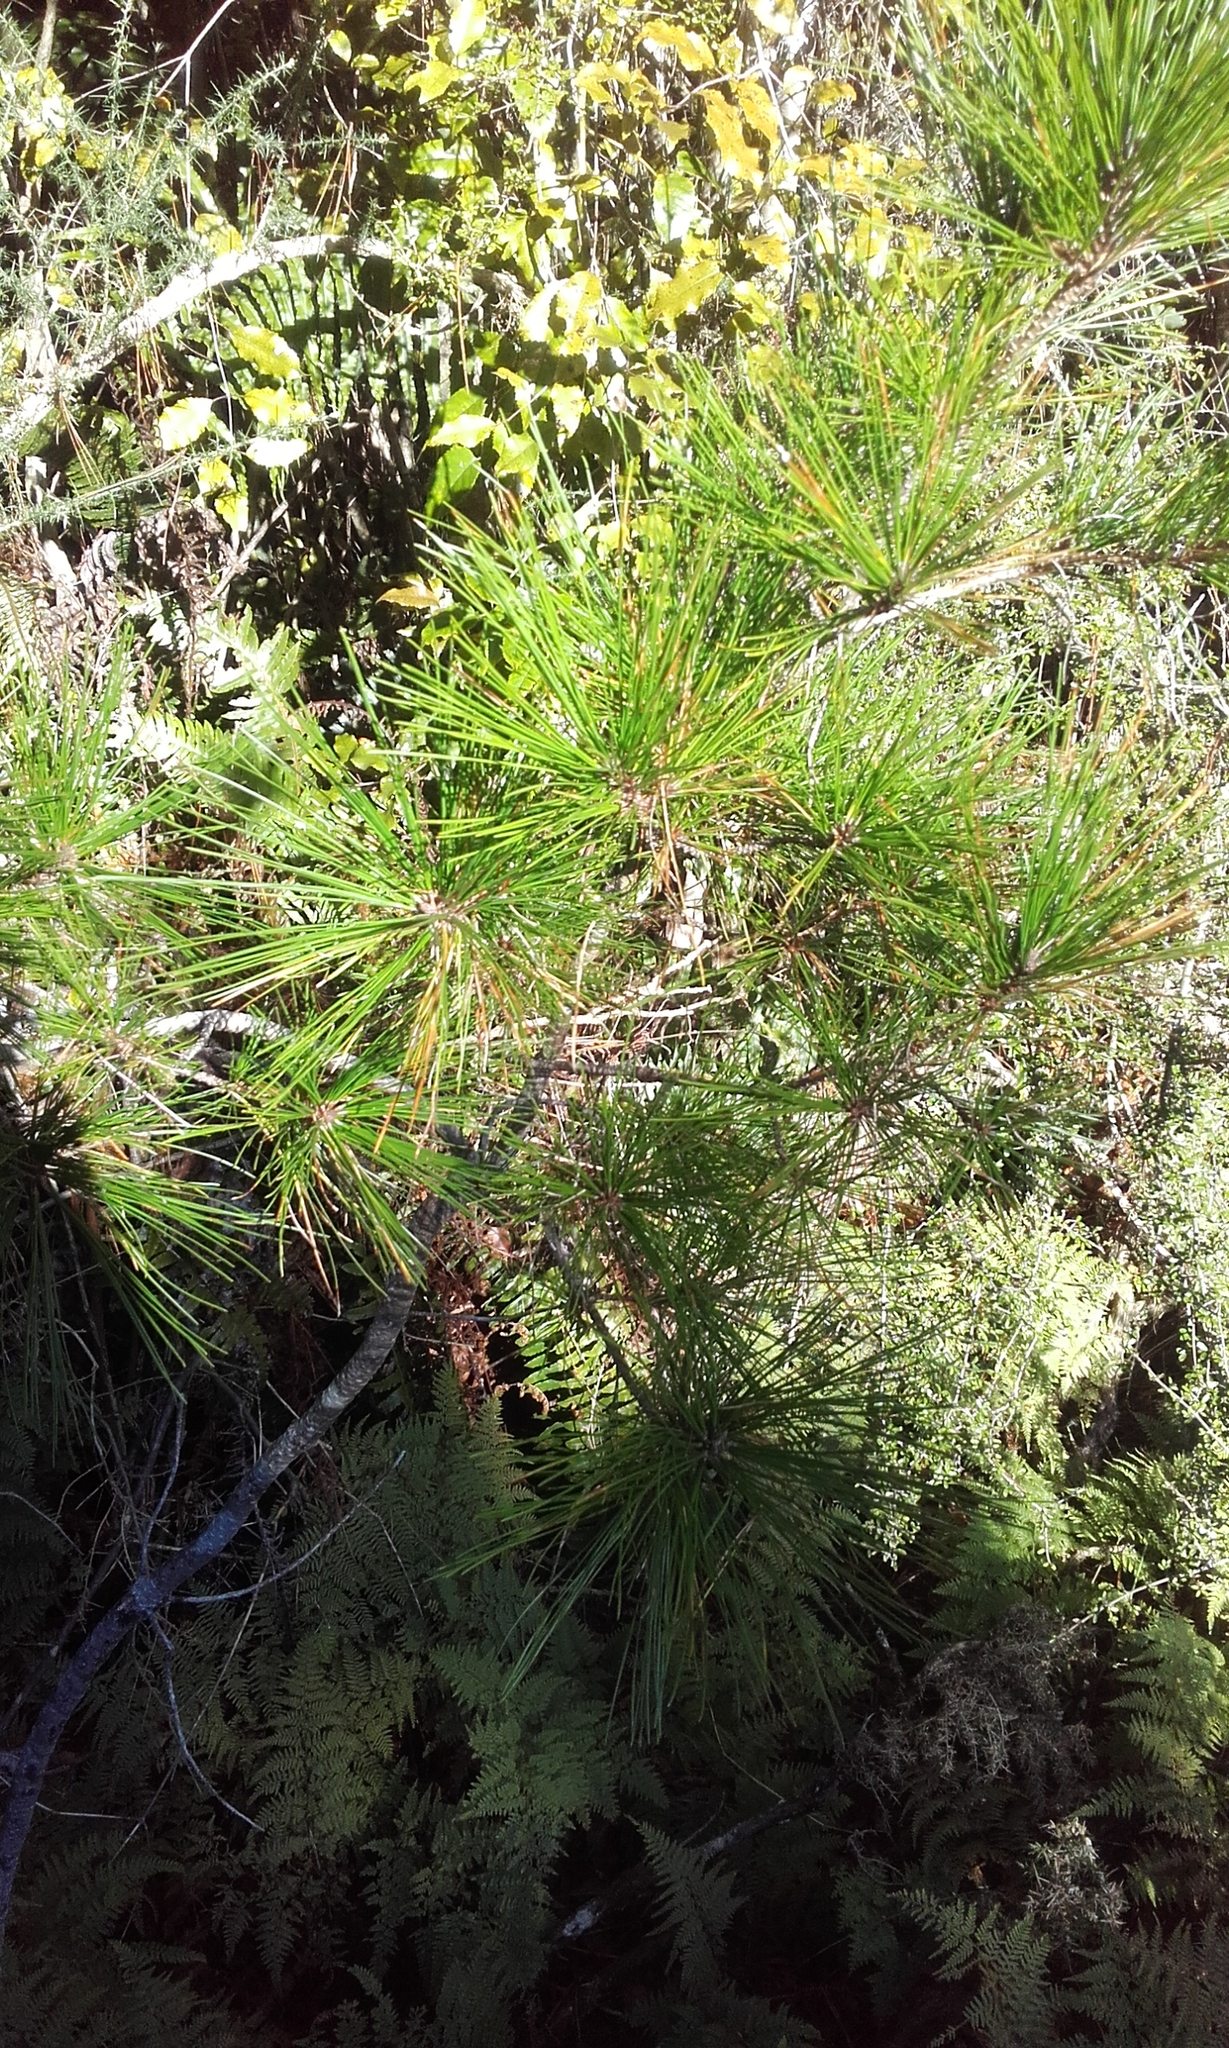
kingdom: Plantae
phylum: Tracheophyta
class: Pinopsida
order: Pinales
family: Pinaceae
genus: Pinus
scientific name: Pinus radiata
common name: Monterey pine
